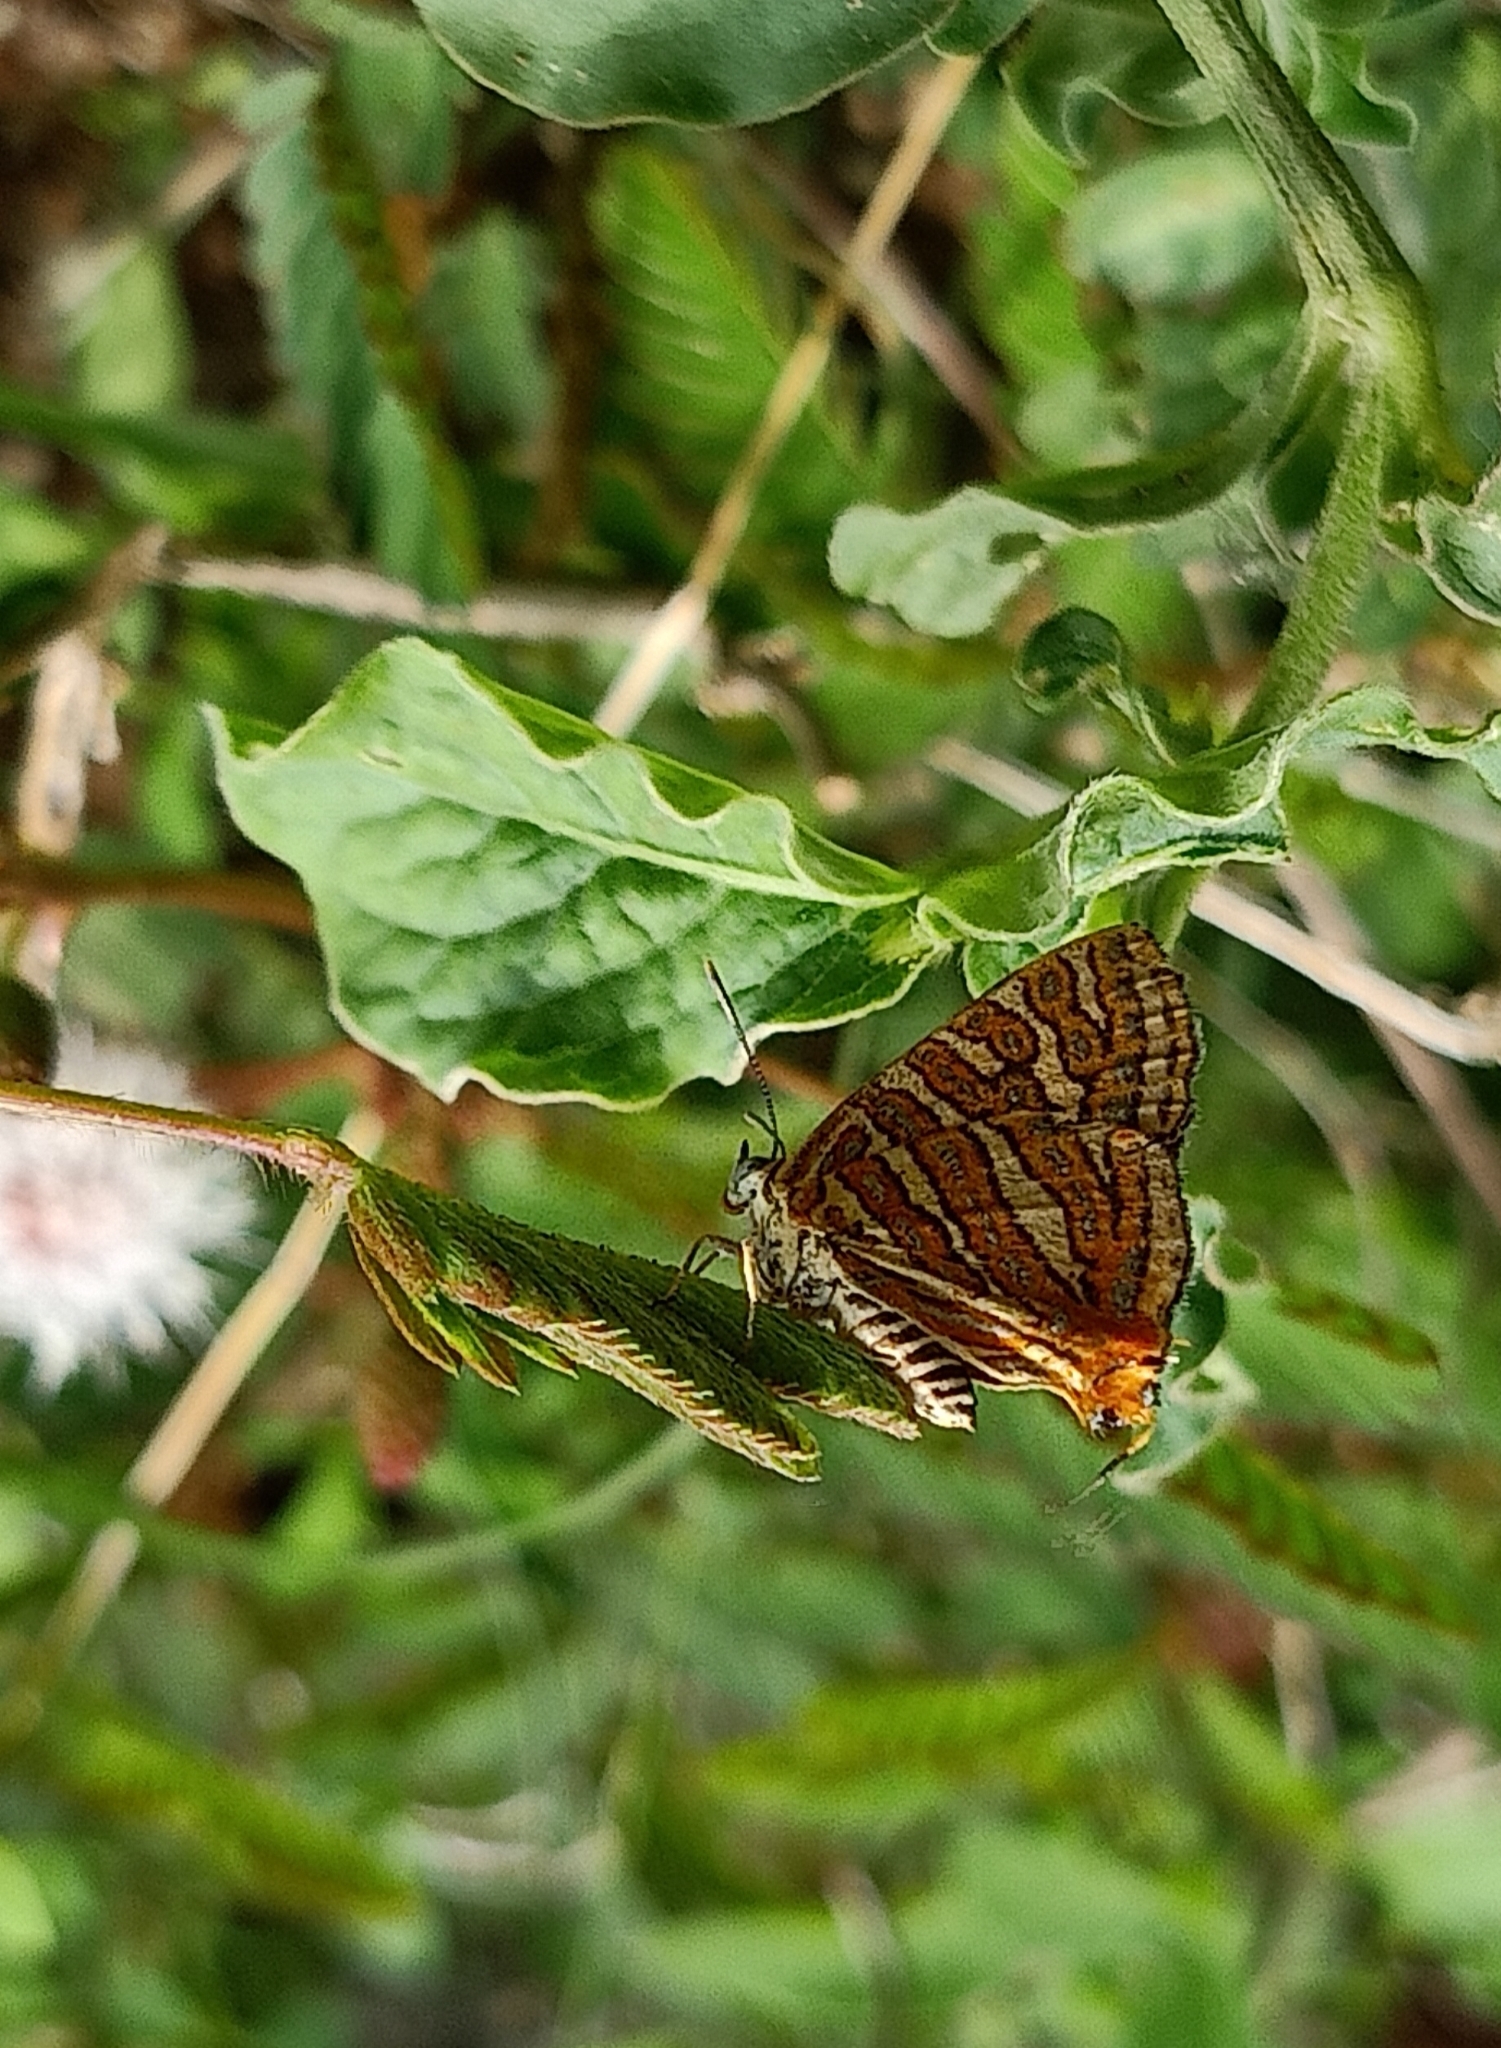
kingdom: Animalia
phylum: Arthropoda
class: Insecta
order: Lepidoptera
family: Lycaenidae
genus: Cigaritis
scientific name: Cigaritis vulcanus
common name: Common silverline
